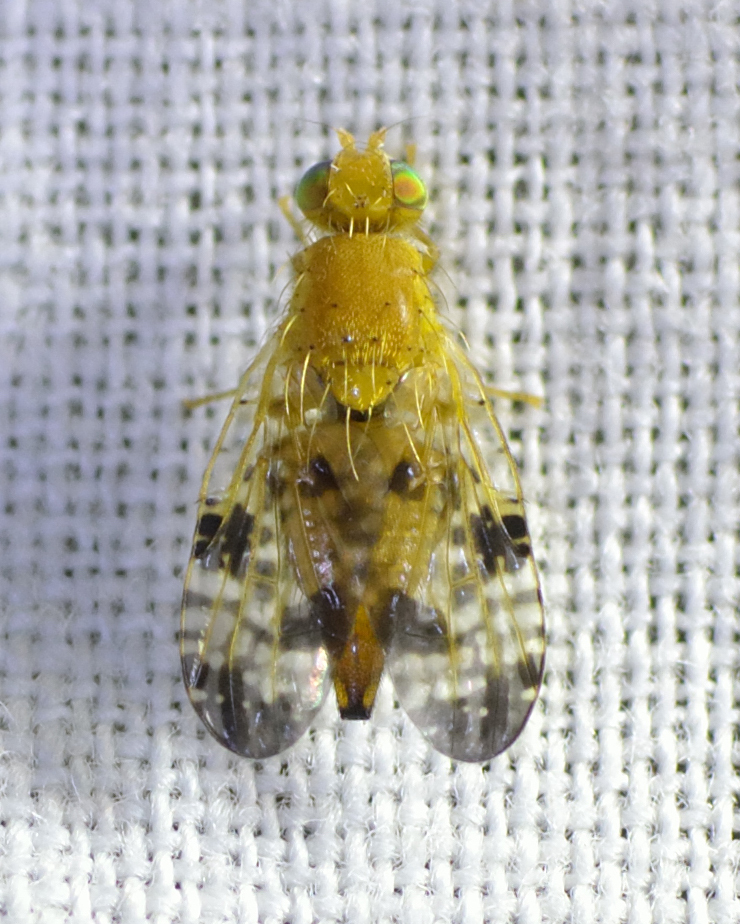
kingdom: Animalia
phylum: Arthropoda
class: Insecta
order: Diptera
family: Tephritidae
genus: Xyphosia
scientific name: Xyphosia miliaria
